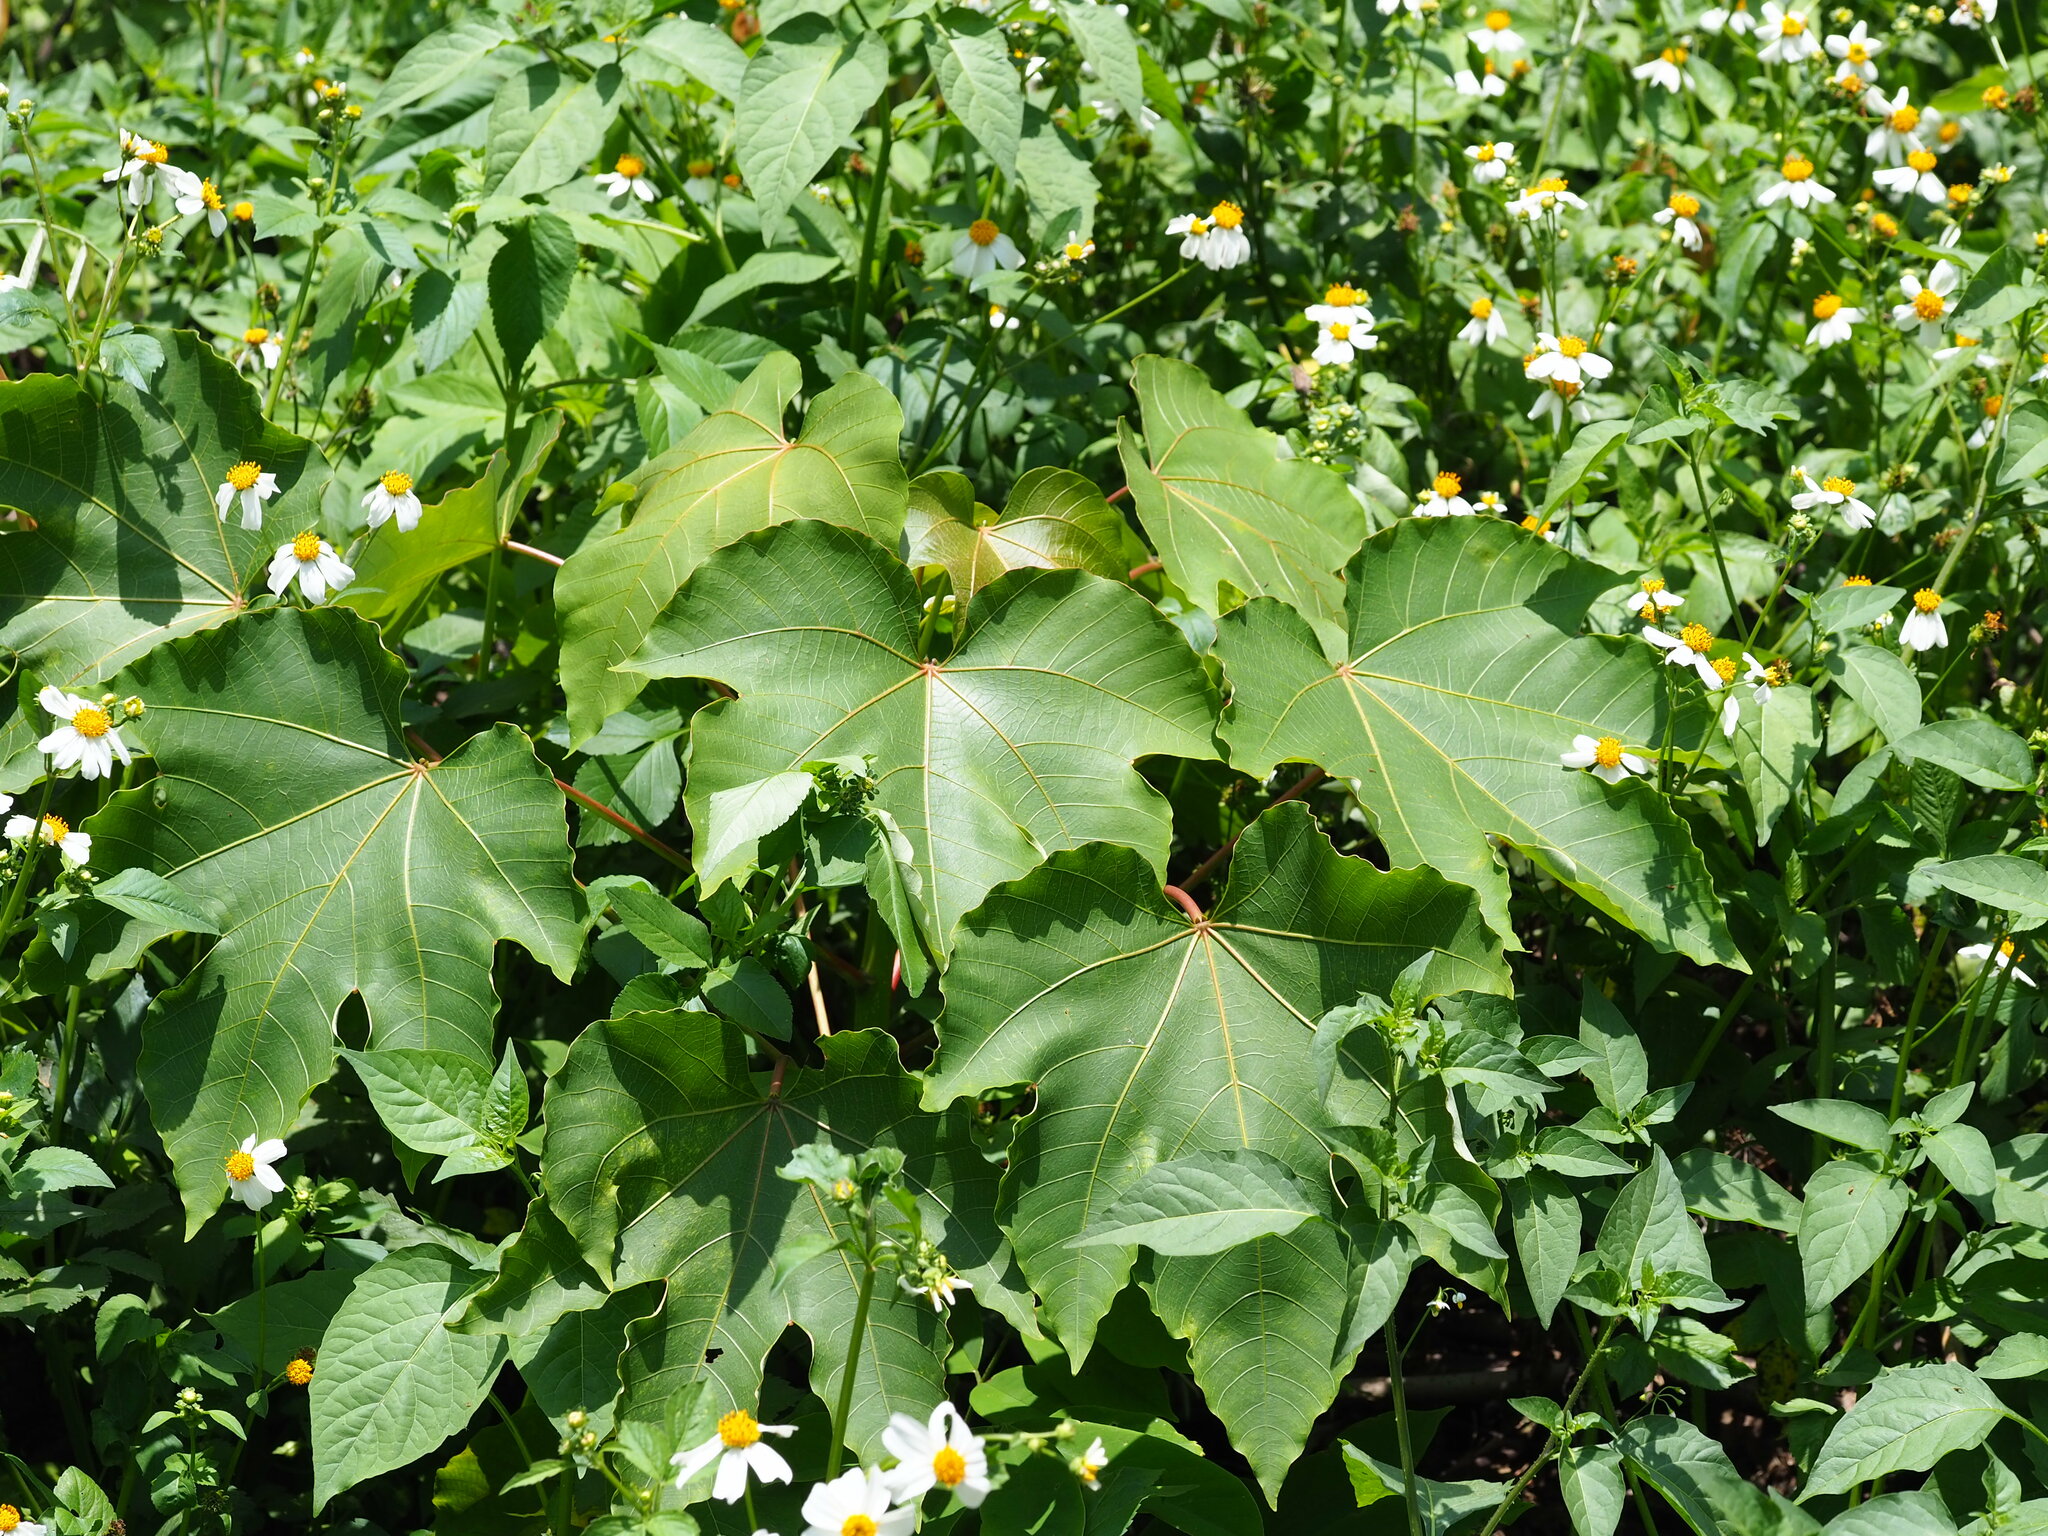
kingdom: Plantae
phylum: Tracheophyta
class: Magnoliopsida
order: Malpighiales
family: Euphorbiaceae
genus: Vernicia
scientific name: Vernicia montana
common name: Mu oil tree
